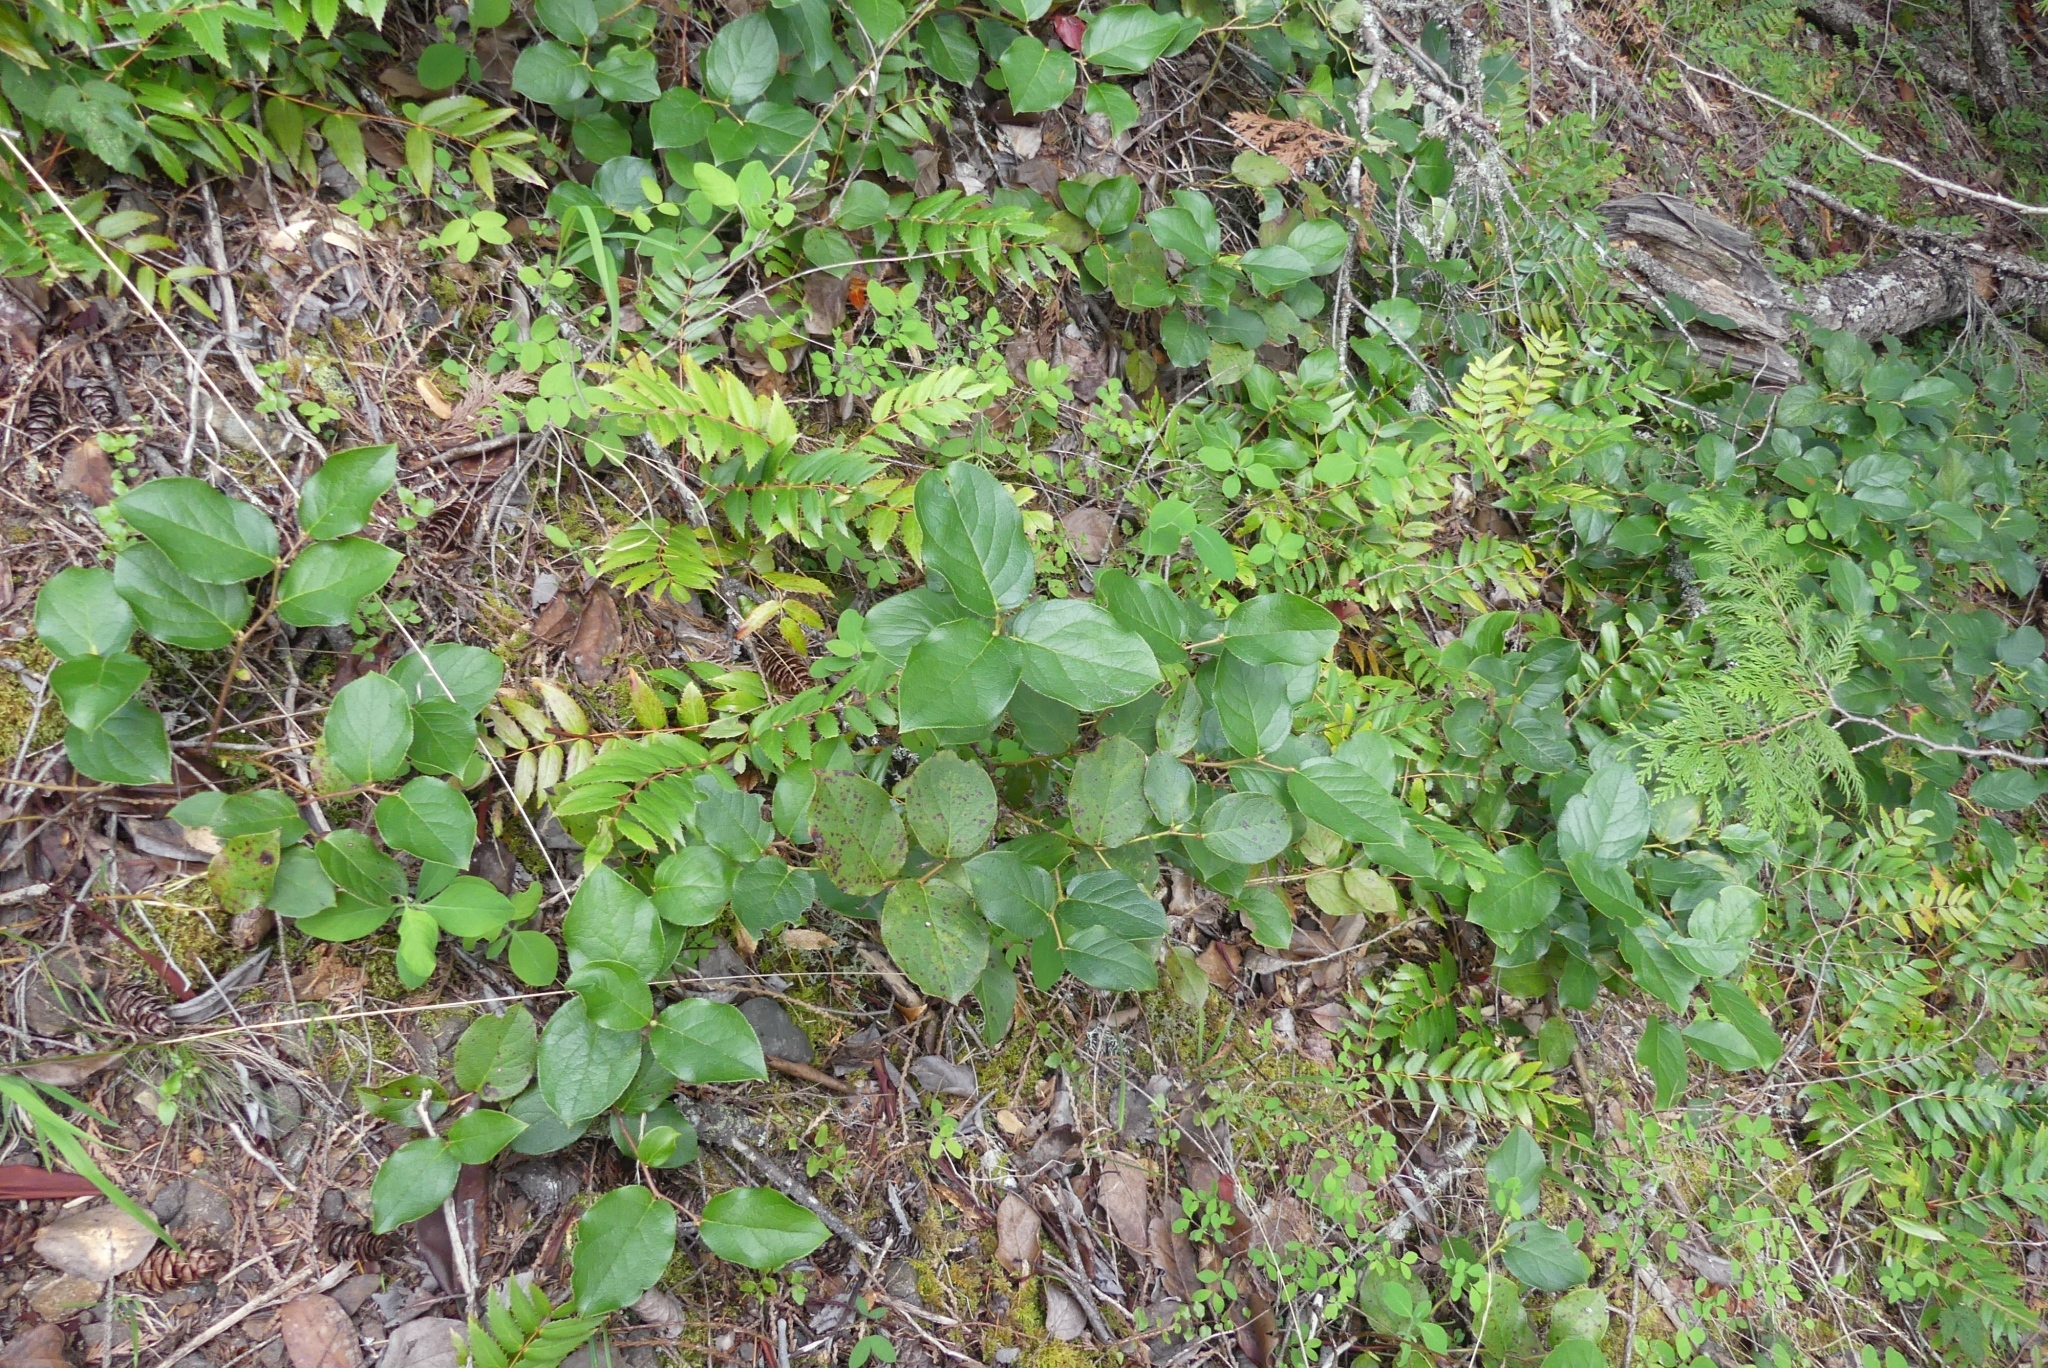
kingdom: Plantae
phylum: Tracheophyta
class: Magnoliopsida
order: Ericales
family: Ericaceae
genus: Gaultheria
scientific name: Gaultheria shallon
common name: Shallon
